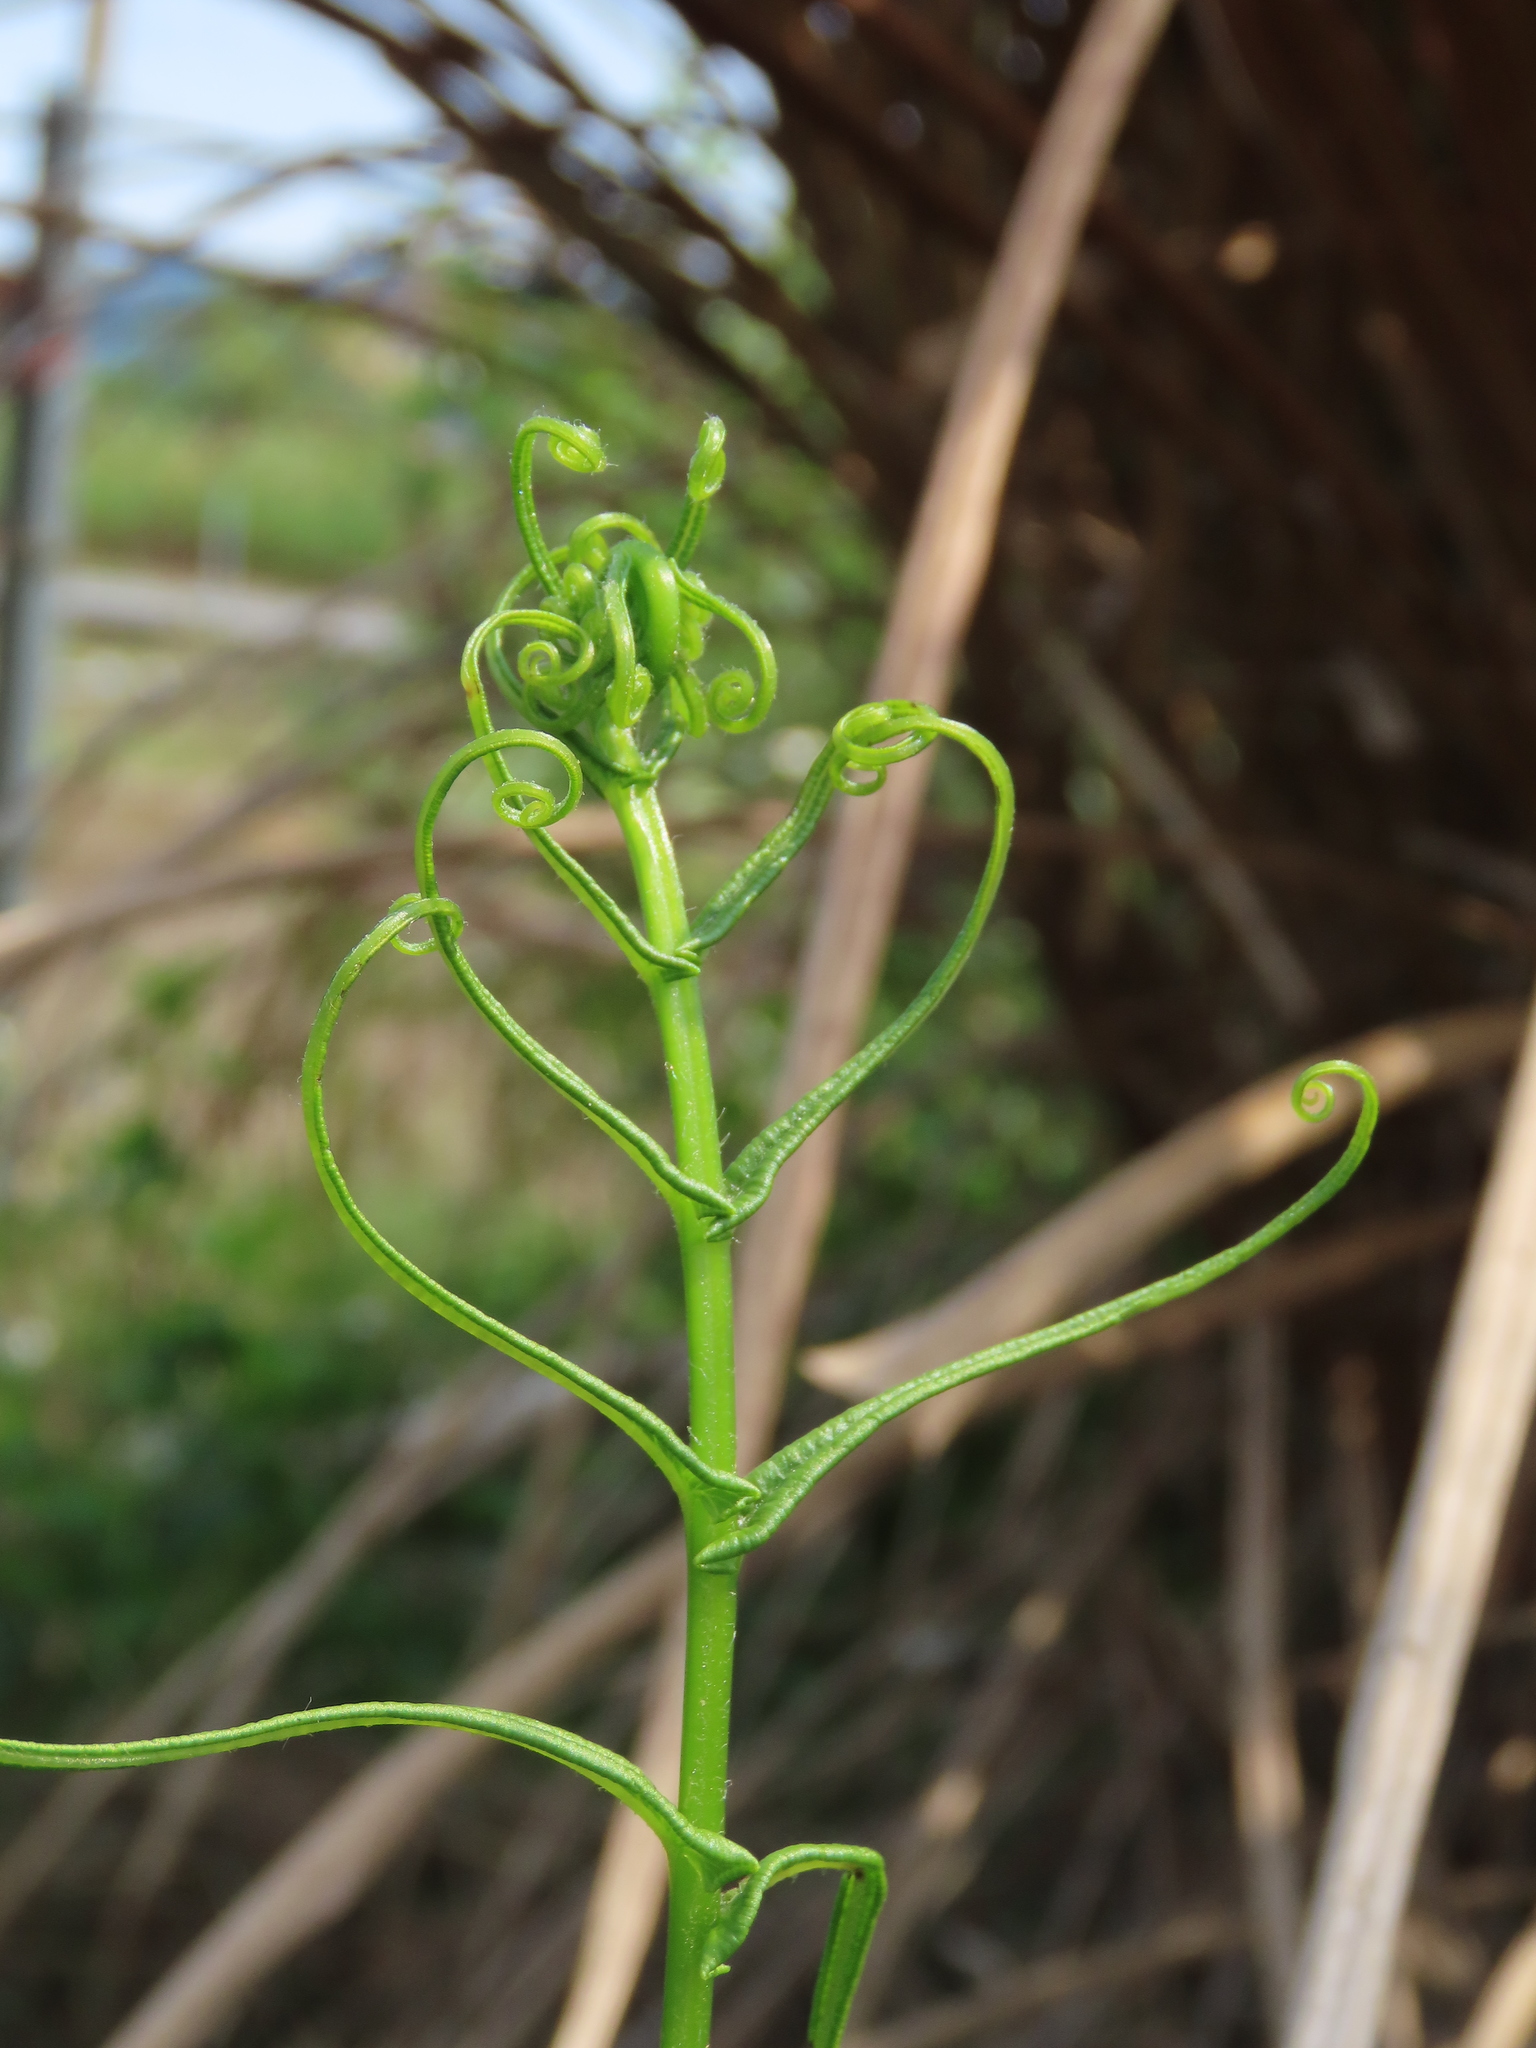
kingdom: Plantae
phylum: Tracheophyta
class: Polypodiopsida
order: Polypodiales
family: Pteridaceae
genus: Pteris
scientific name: Pteris vittata
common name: Ladder brake
